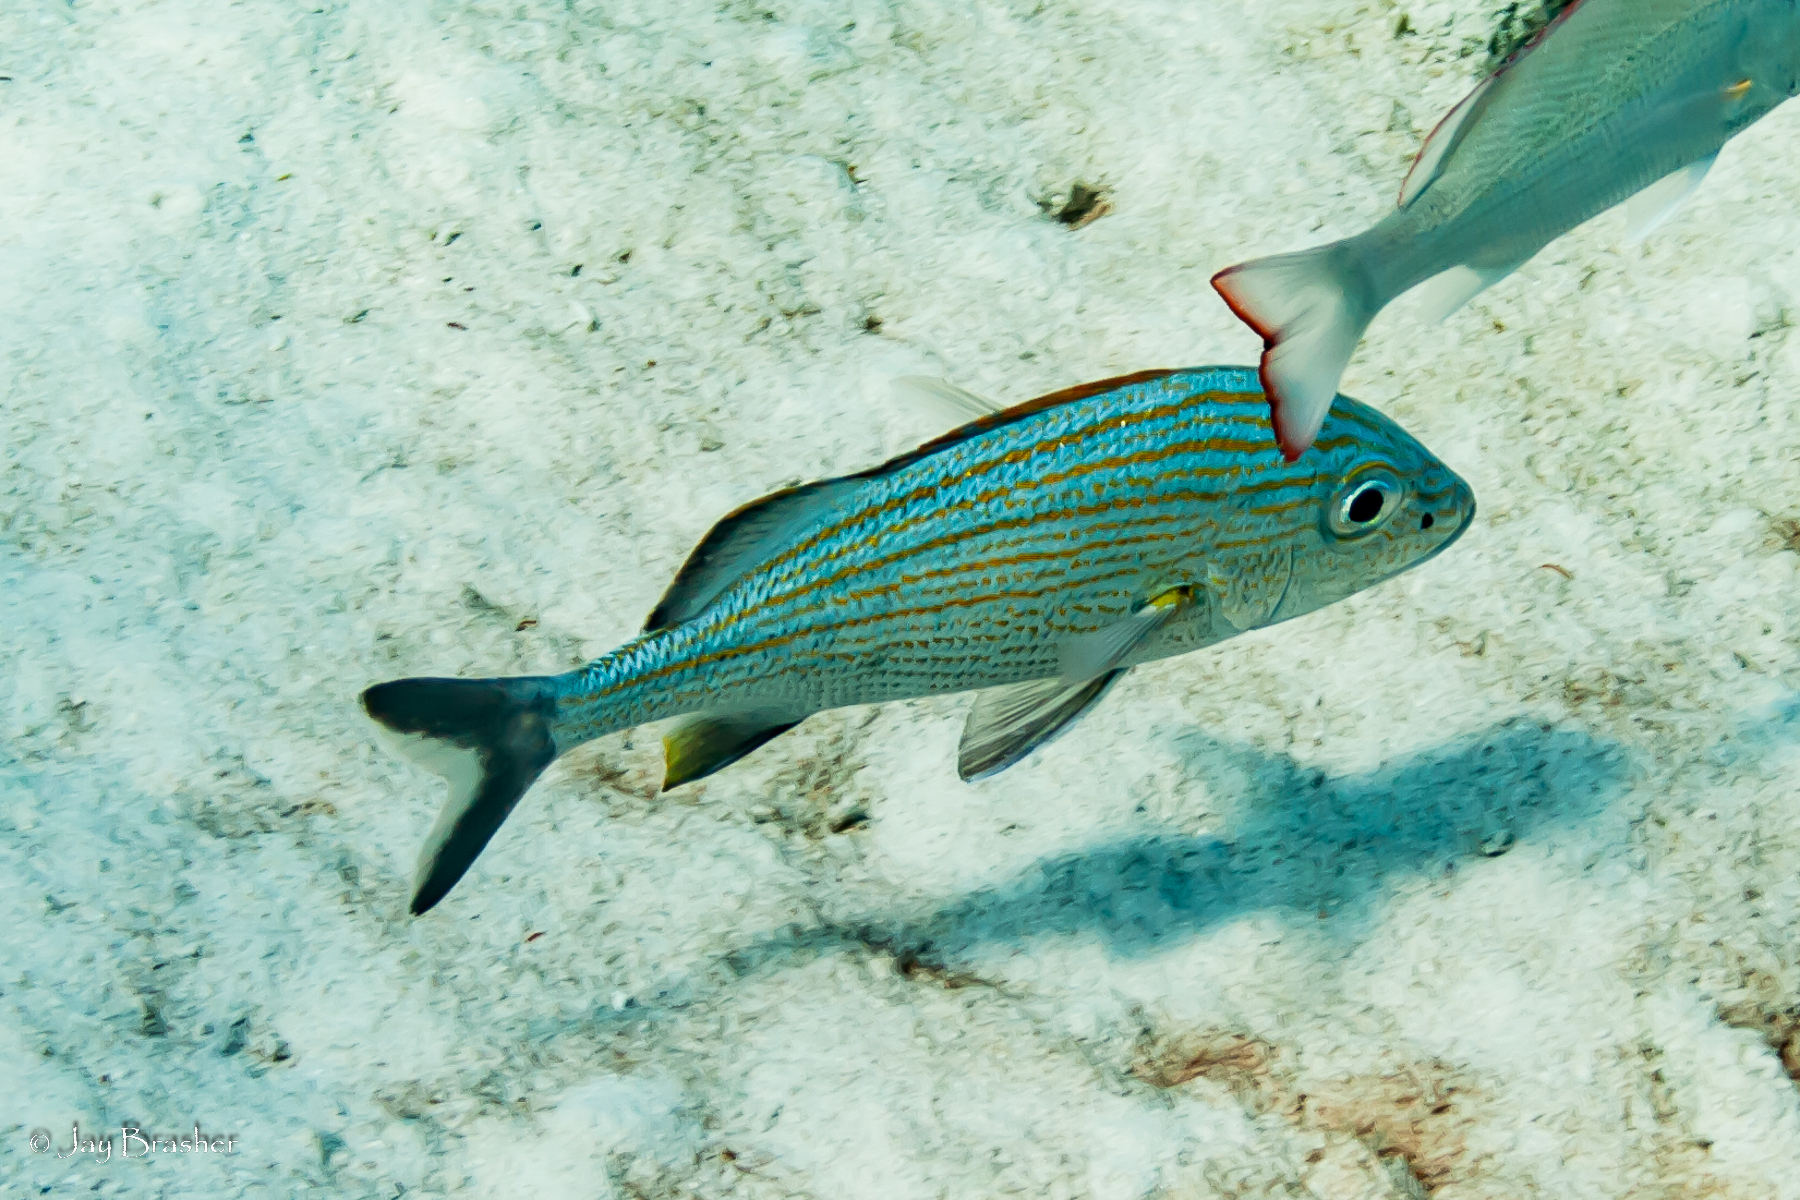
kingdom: Animalia
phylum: Chordata
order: Perciformes
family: Haemulidae
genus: Haemulon
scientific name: Haemulon carbonarium
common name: Caesar grunt
